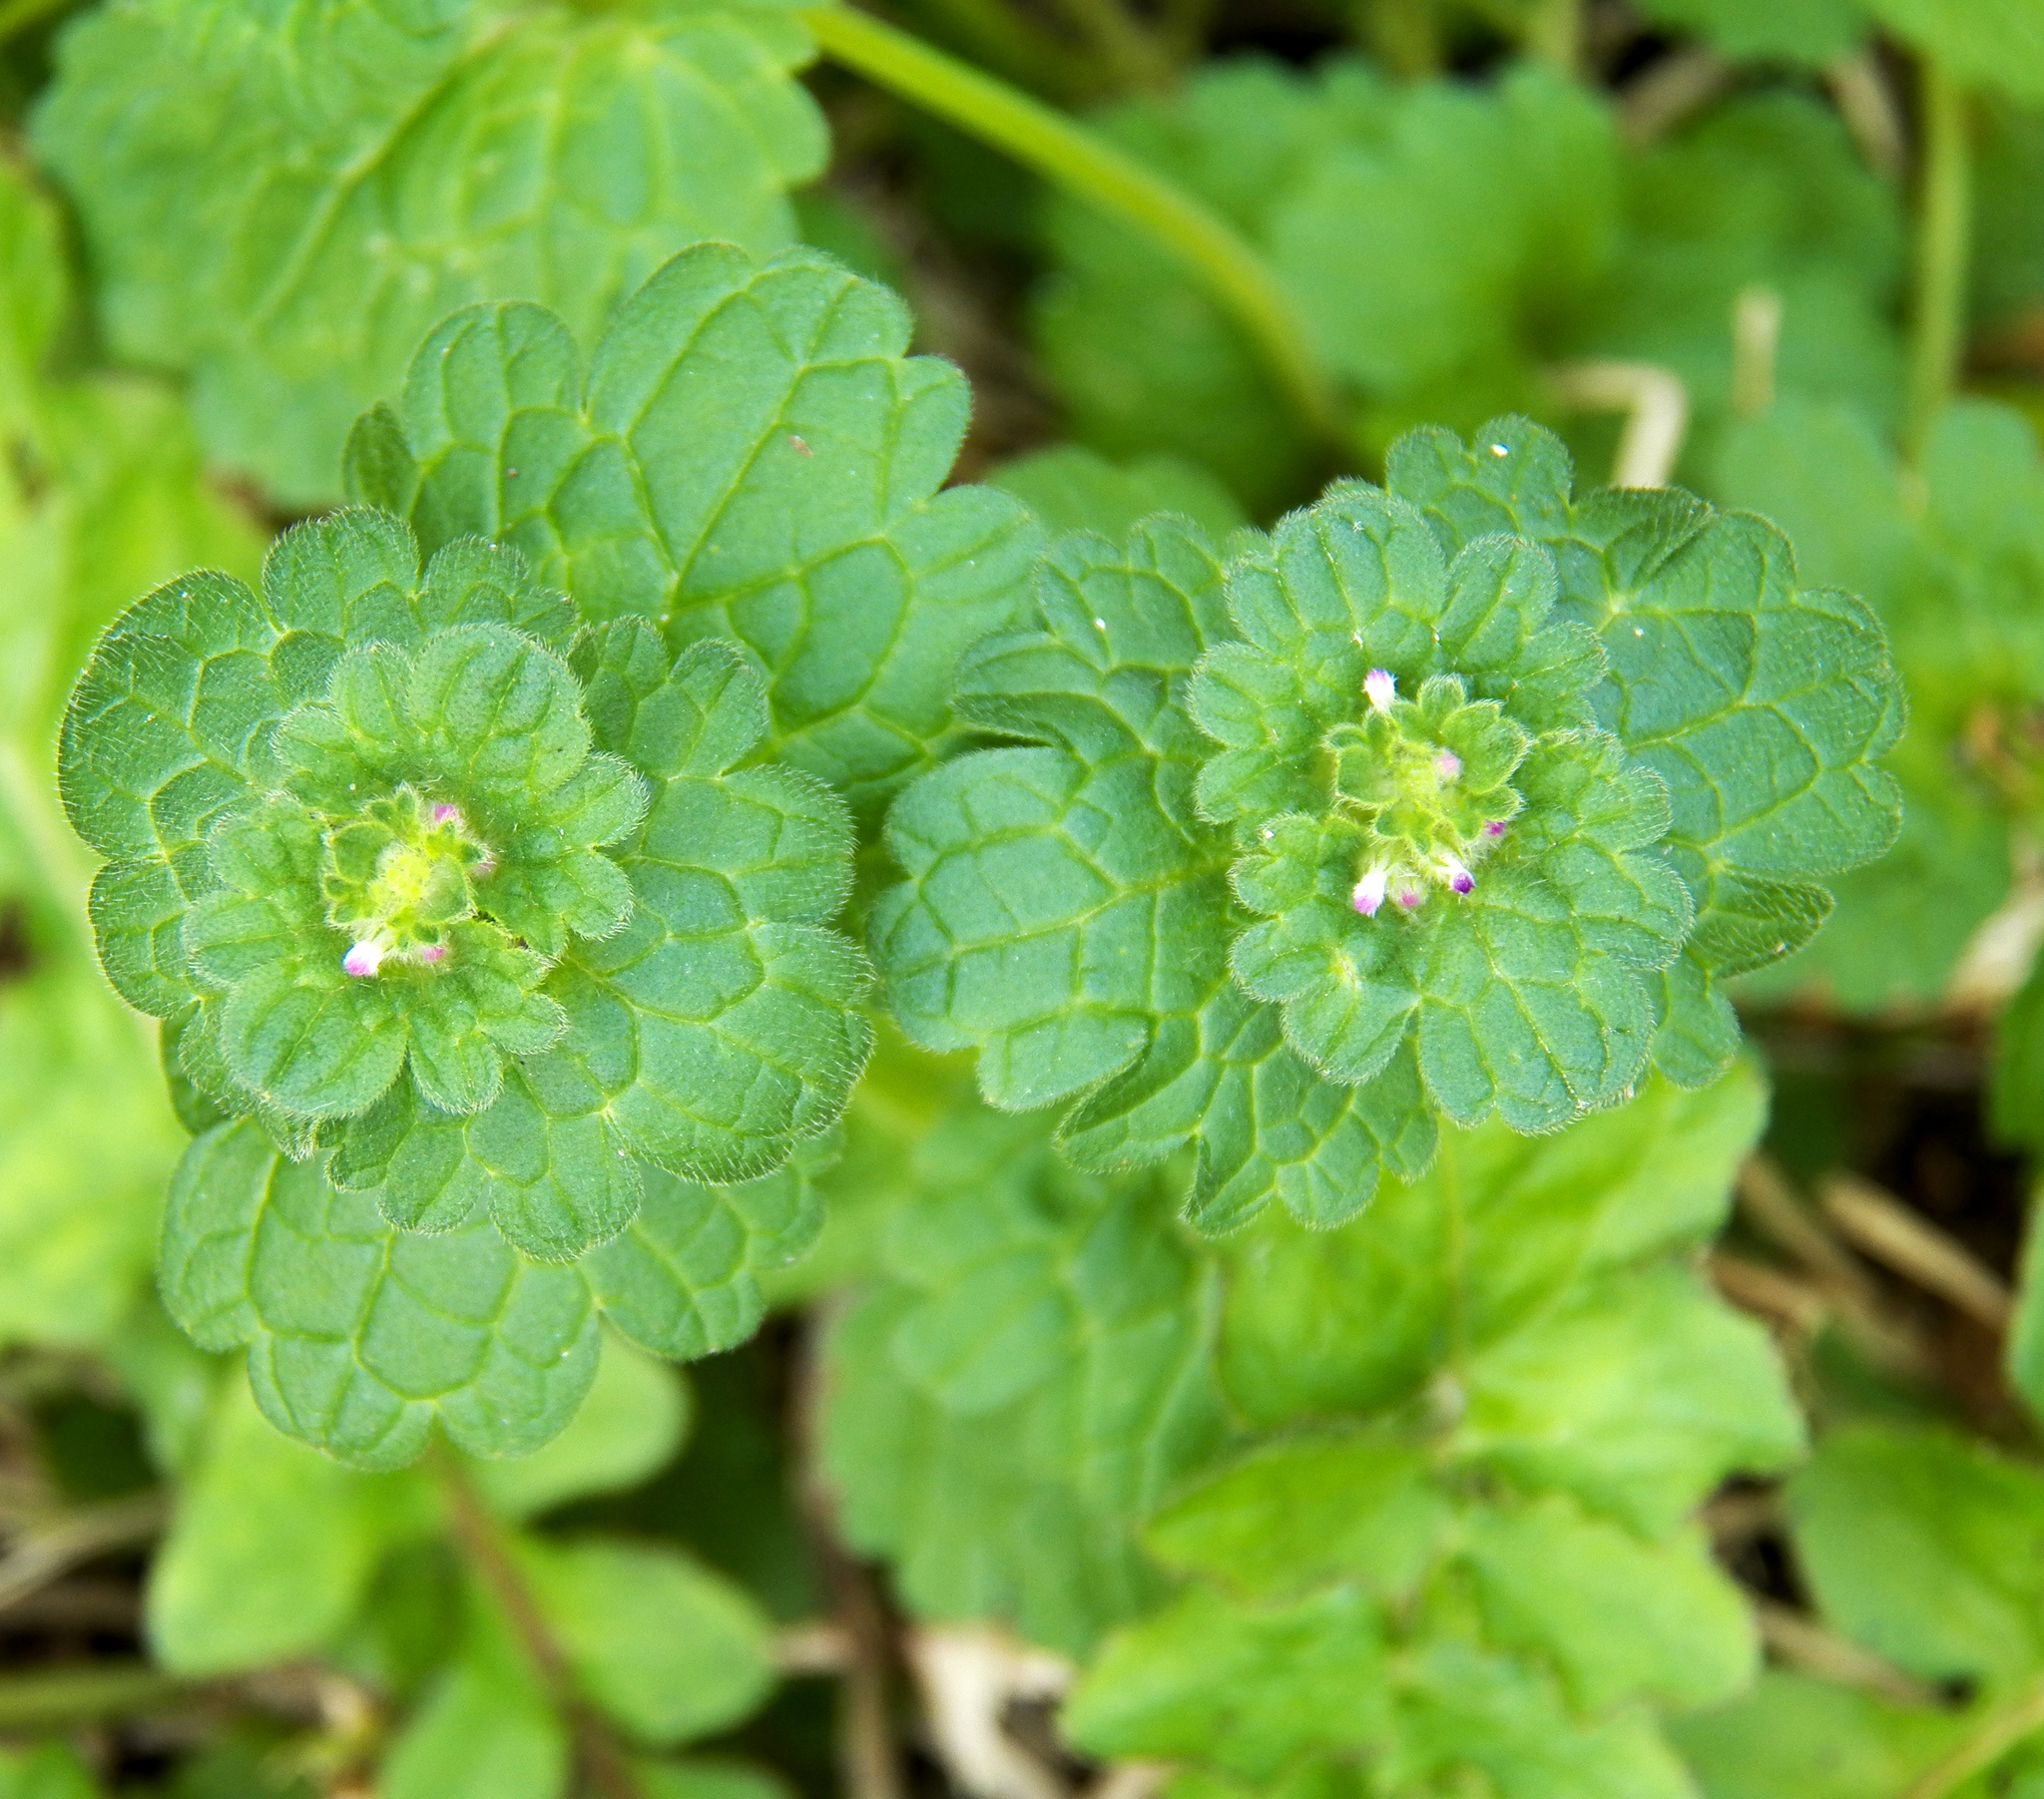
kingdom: Plantae
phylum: Tracheophyta
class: Magnoliopsida
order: Lamiales
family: Lamiaceae
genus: Lamium
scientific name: Lamium amplexicaule
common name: Henbit dead-nettle
